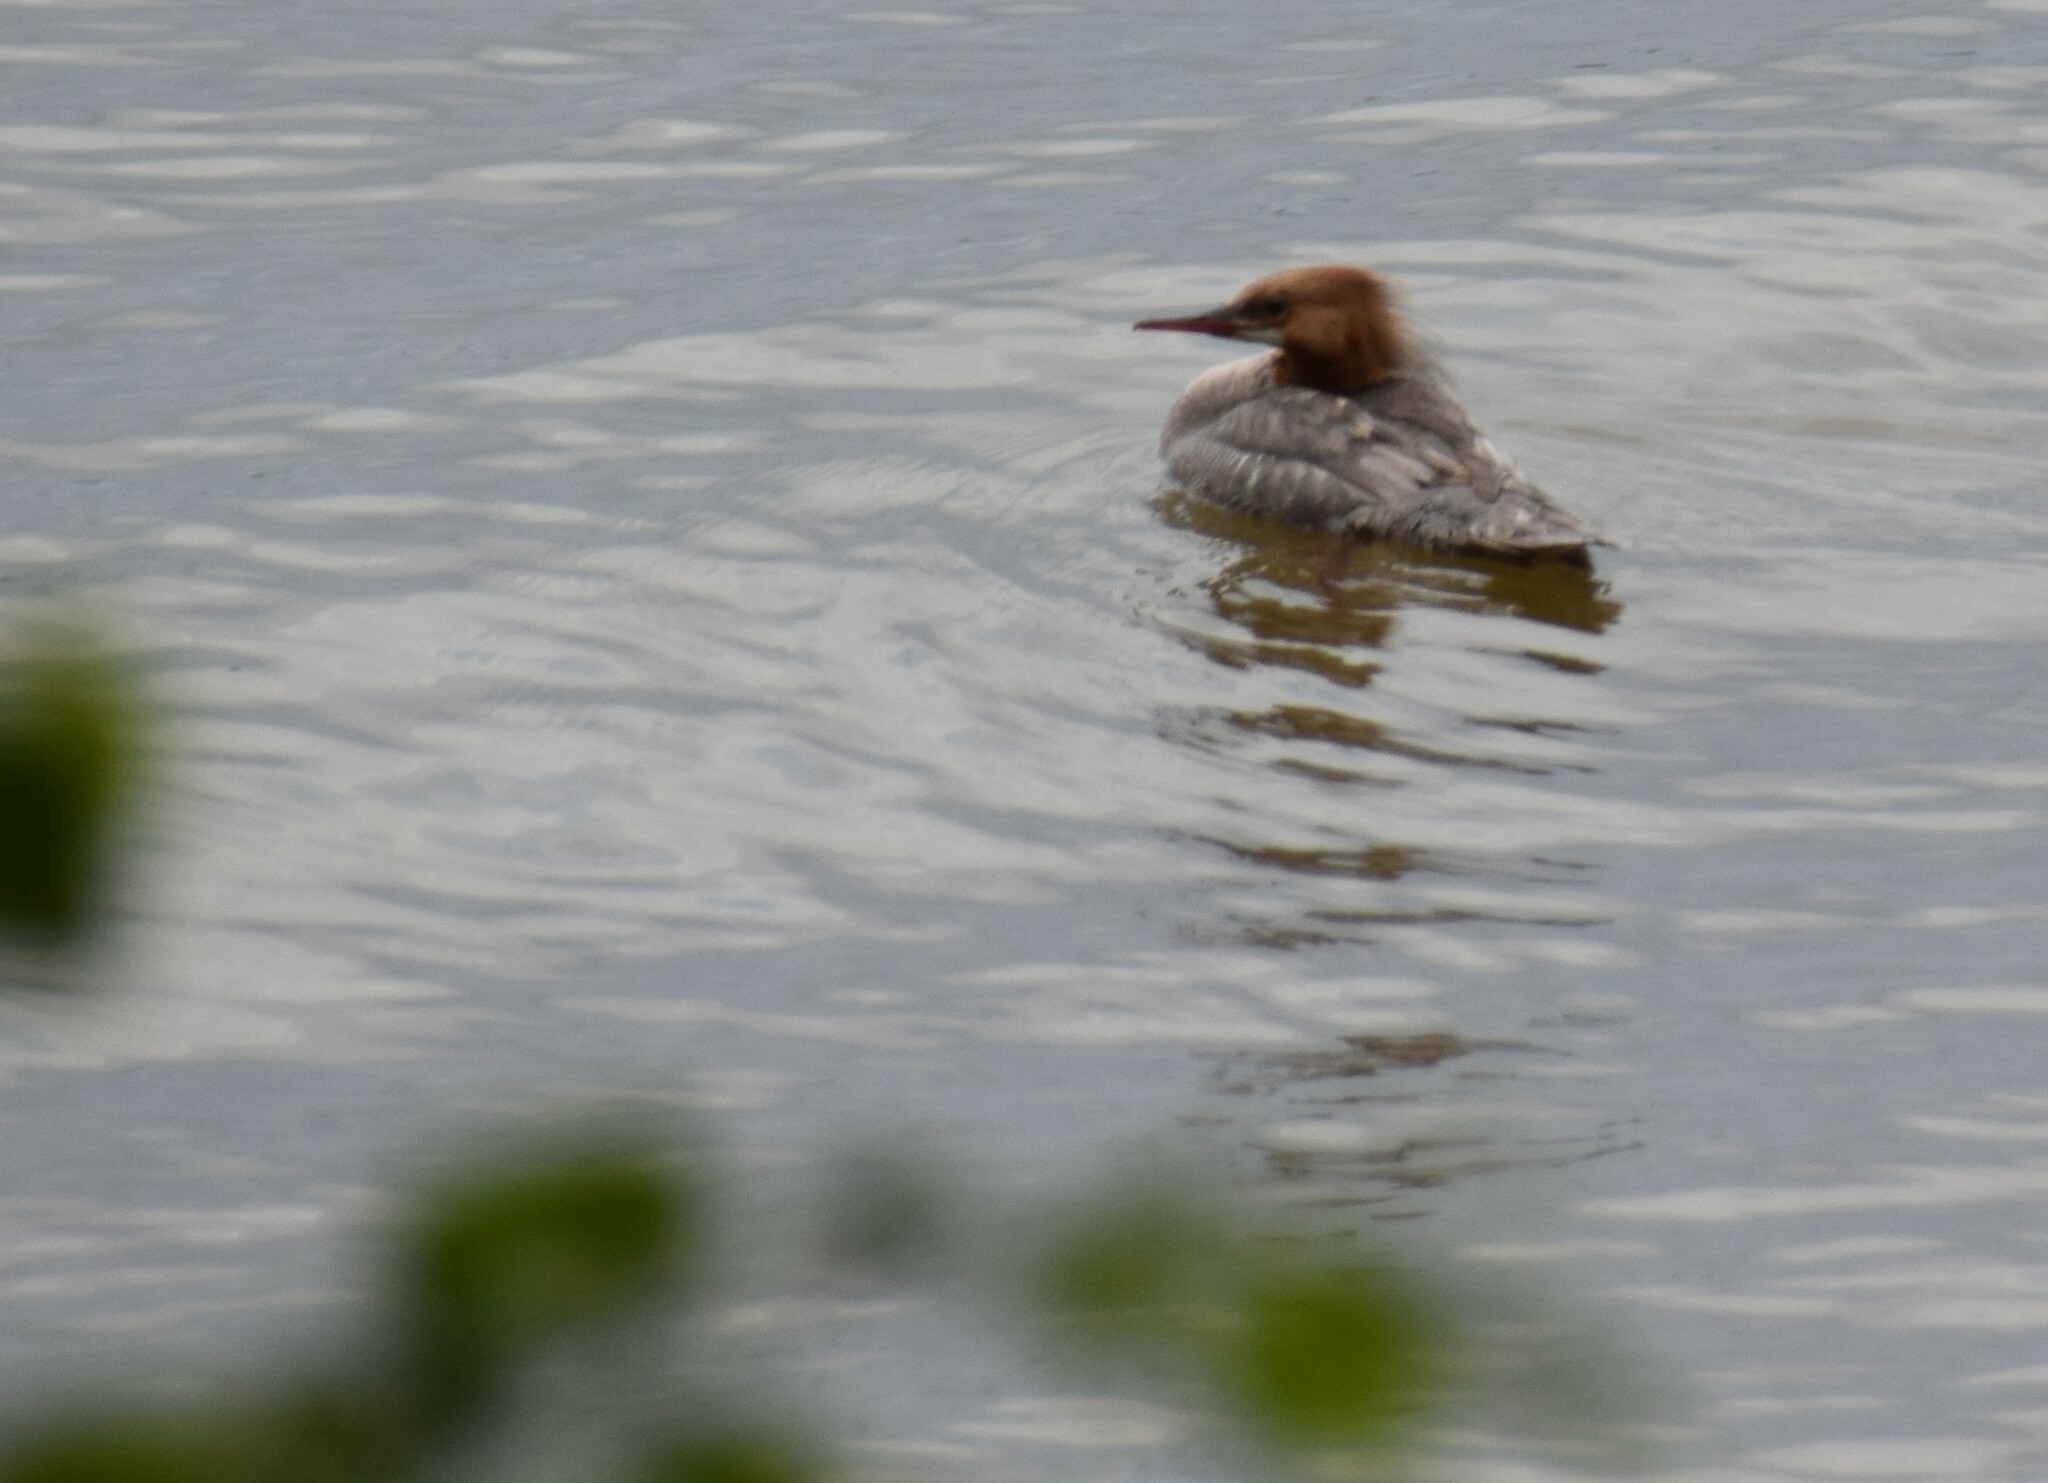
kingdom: Animalia
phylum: Chordata
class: Aves
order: Anseriformes
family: Anatidae
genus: Mergus
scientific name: Mergus merganser
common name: Common merganser
